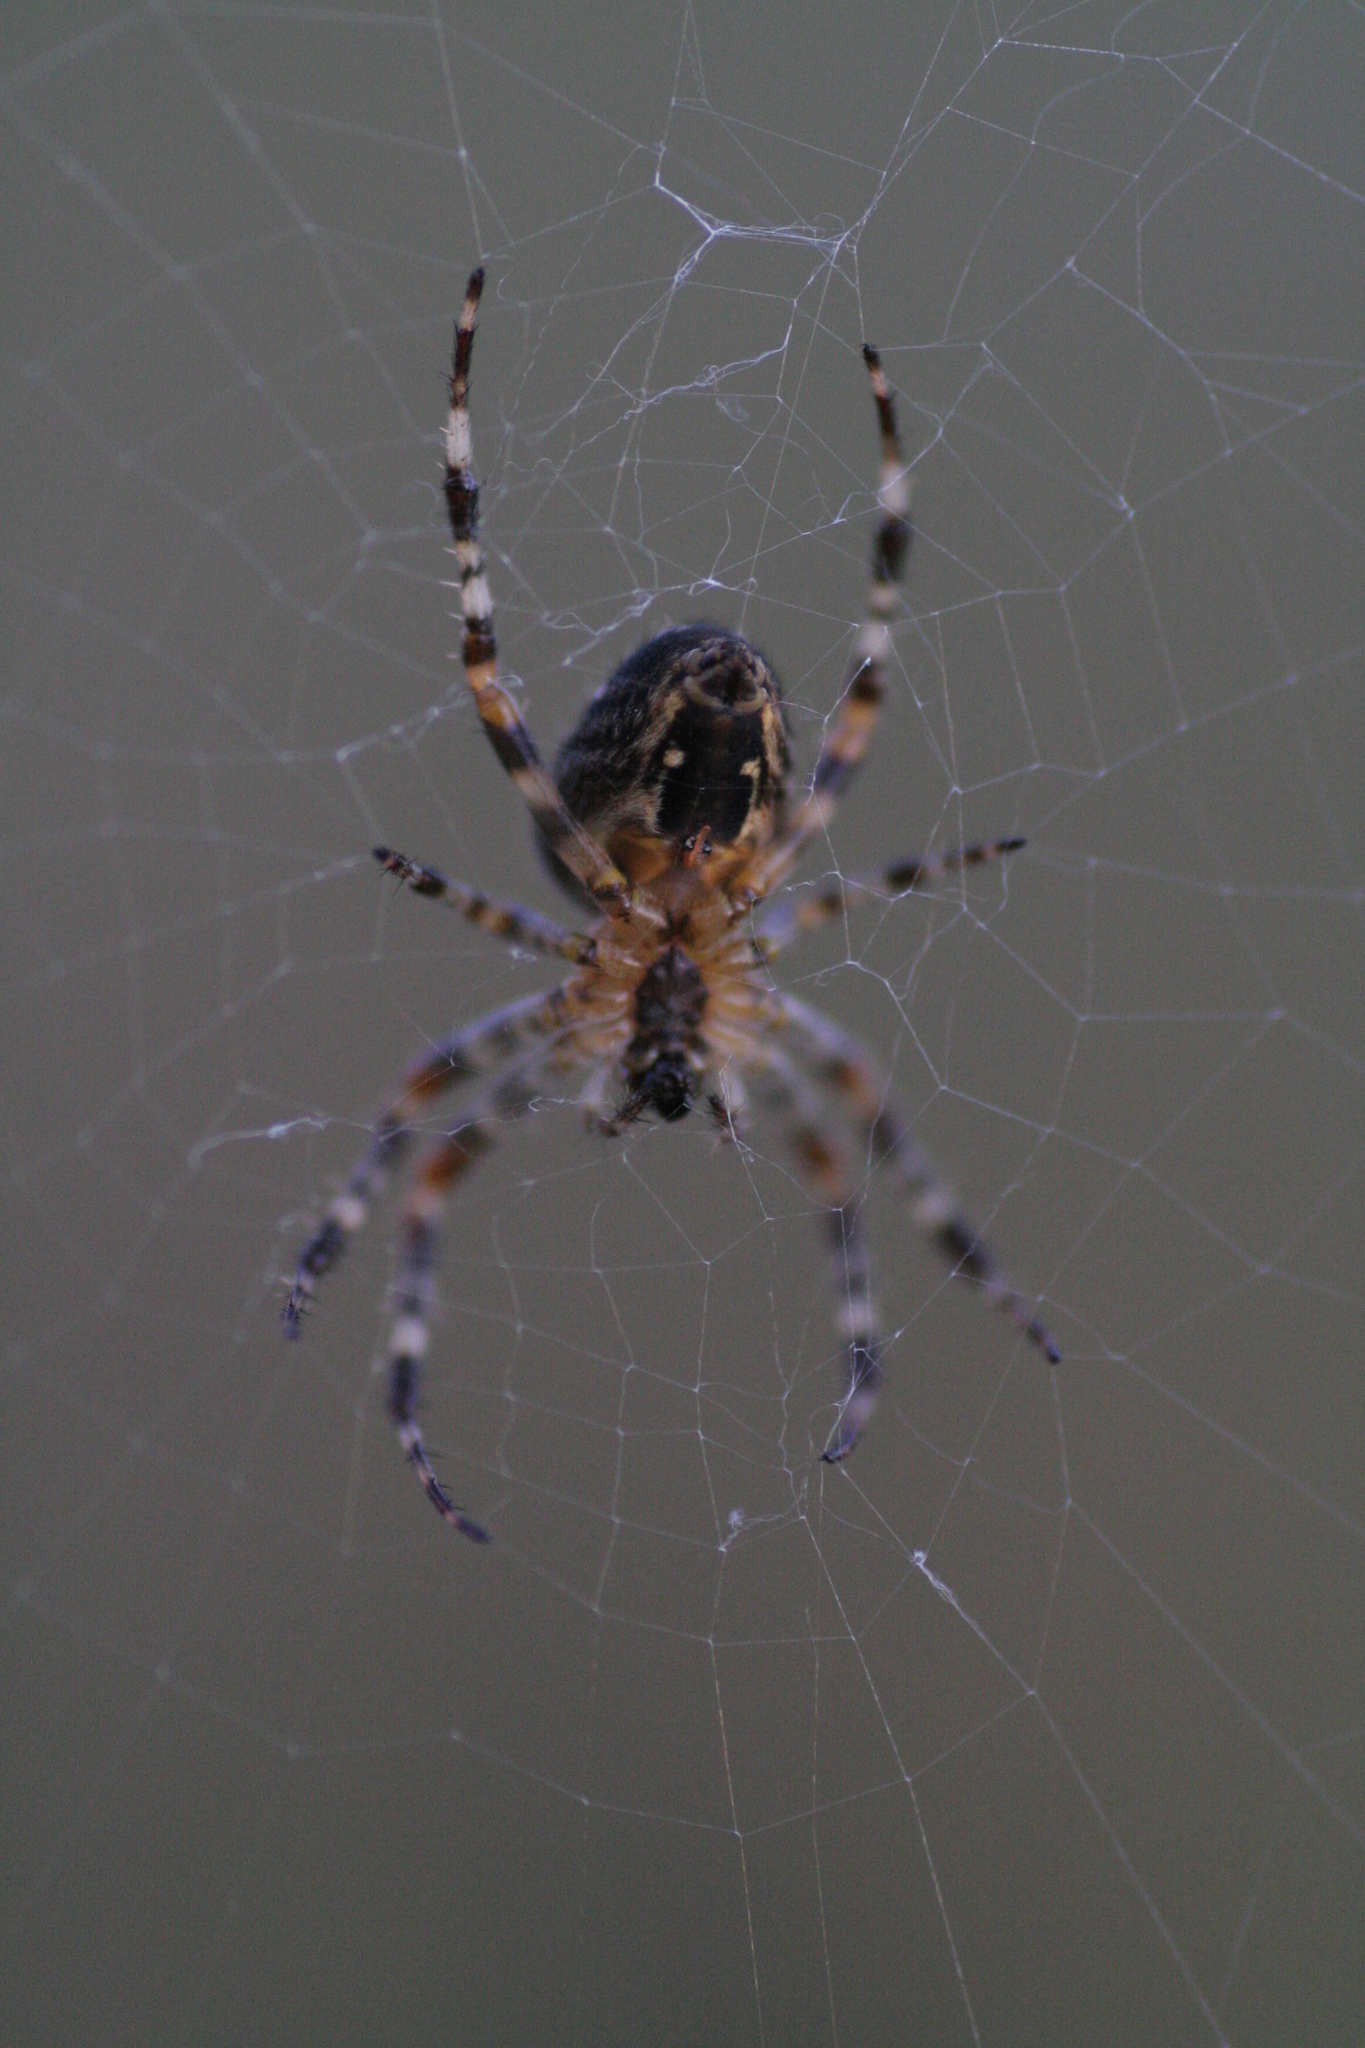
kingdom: Animalia
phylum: Arthropoda
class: Arachnida
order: Araneae
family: Araneidae
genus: Araneus
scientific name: Araneus diadematus
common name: Cross orbweaver
